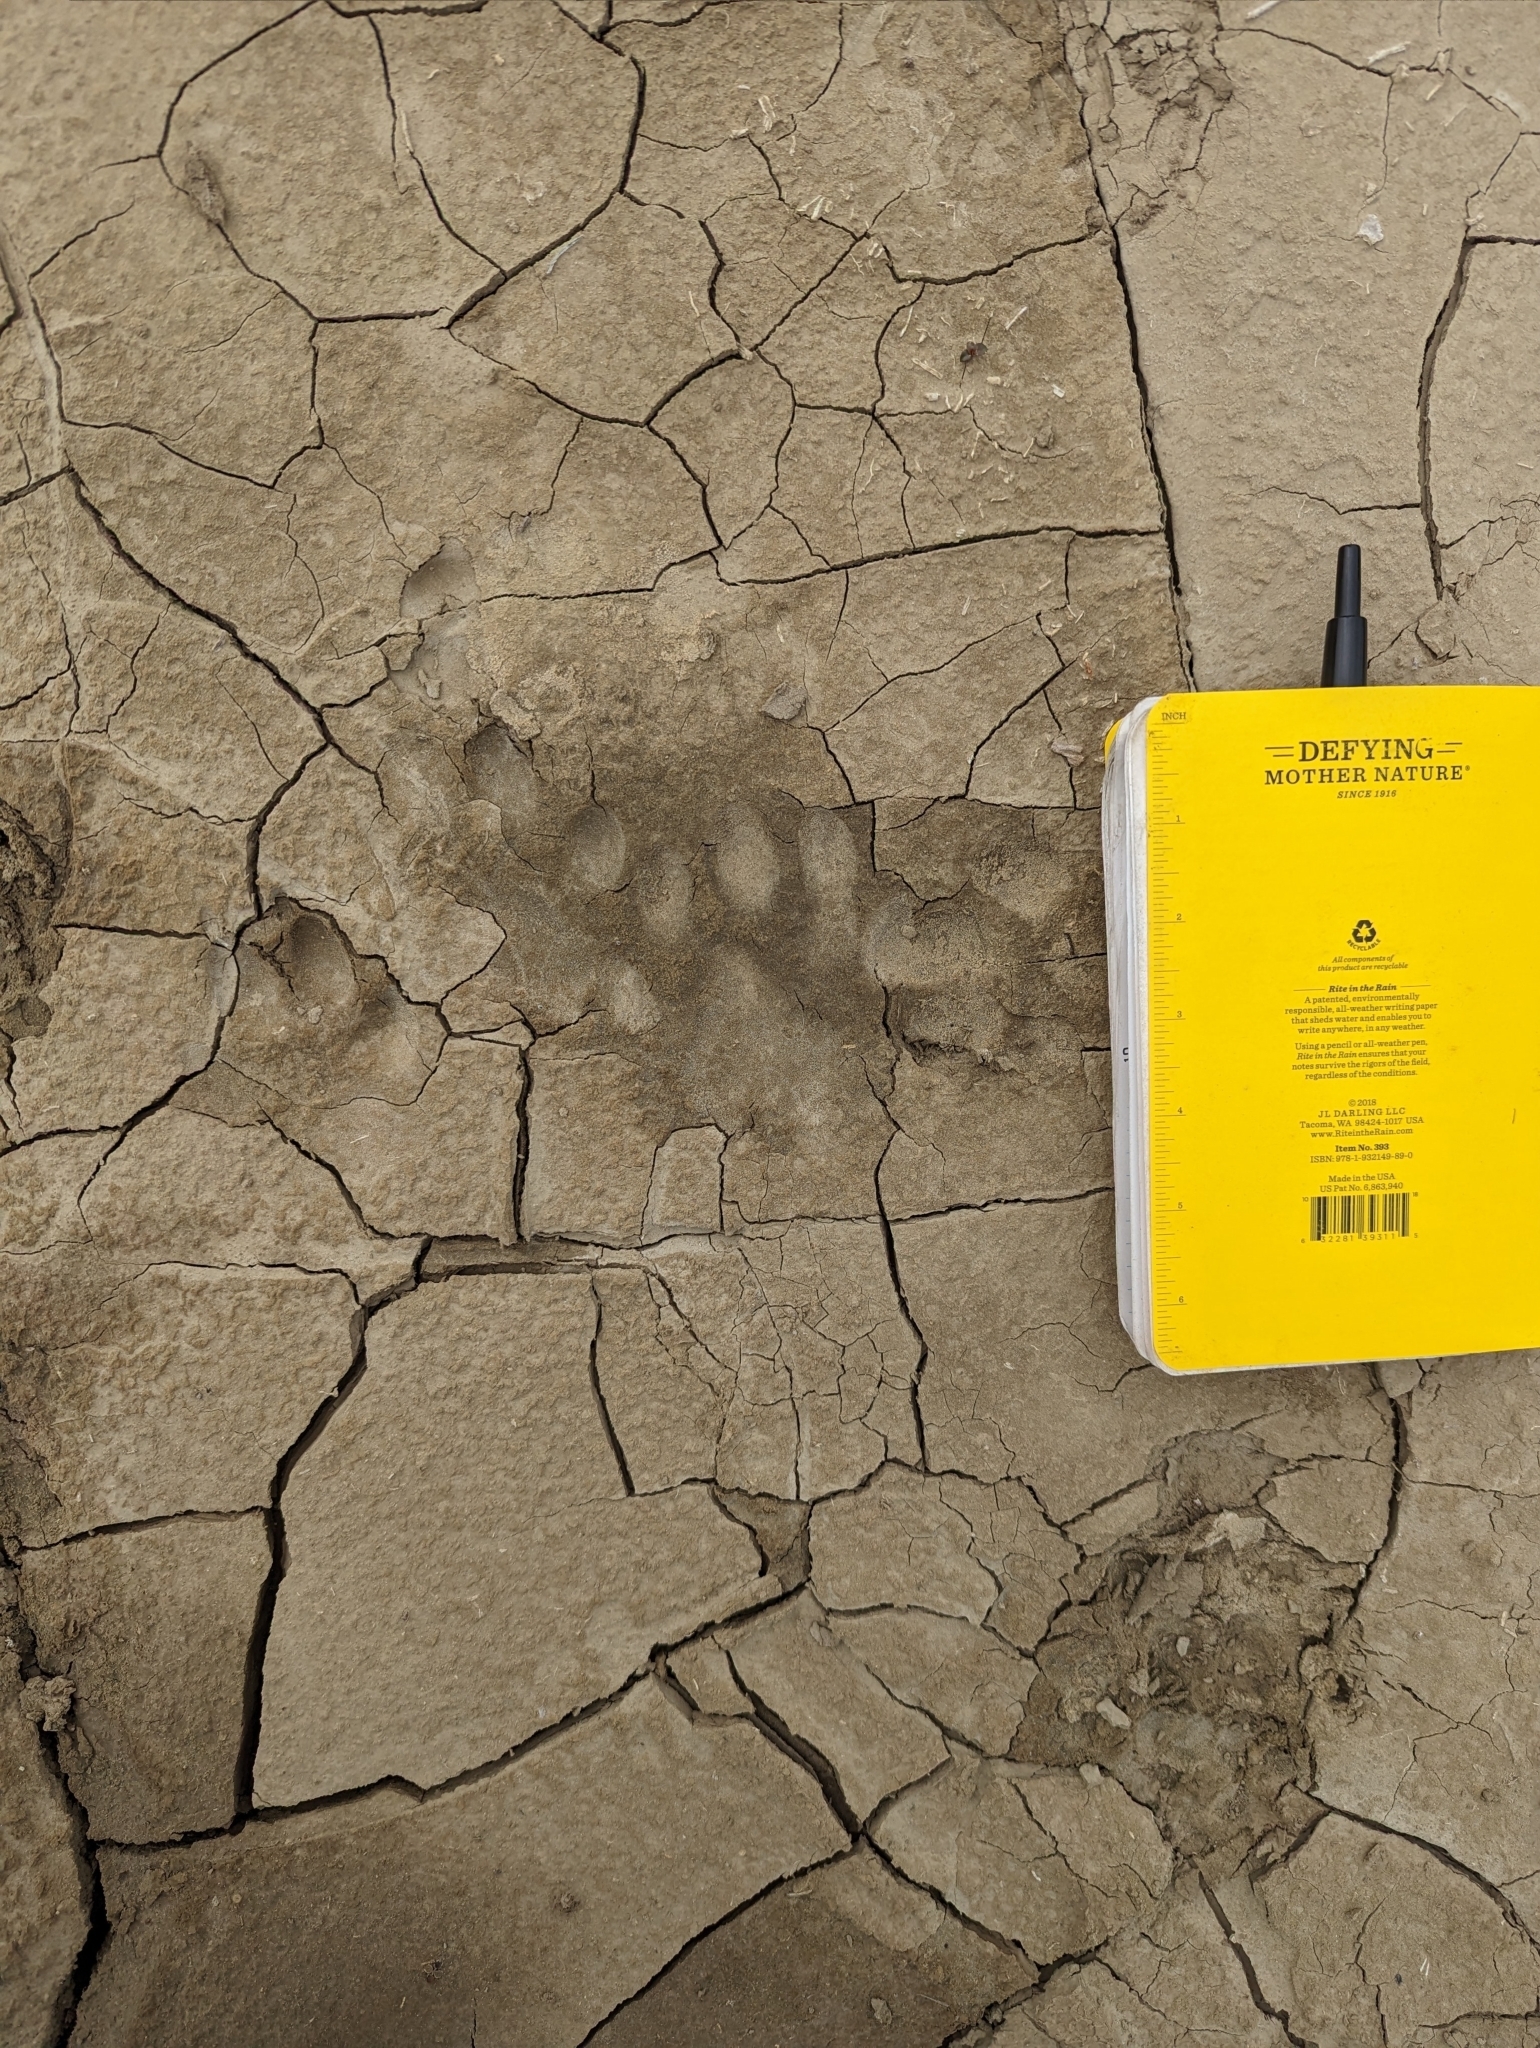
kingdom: Animalia
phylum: Chordata
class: Mammalia
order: Carnivora
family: Felidae
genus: Puma
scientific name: Puma concolor
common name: Puma
